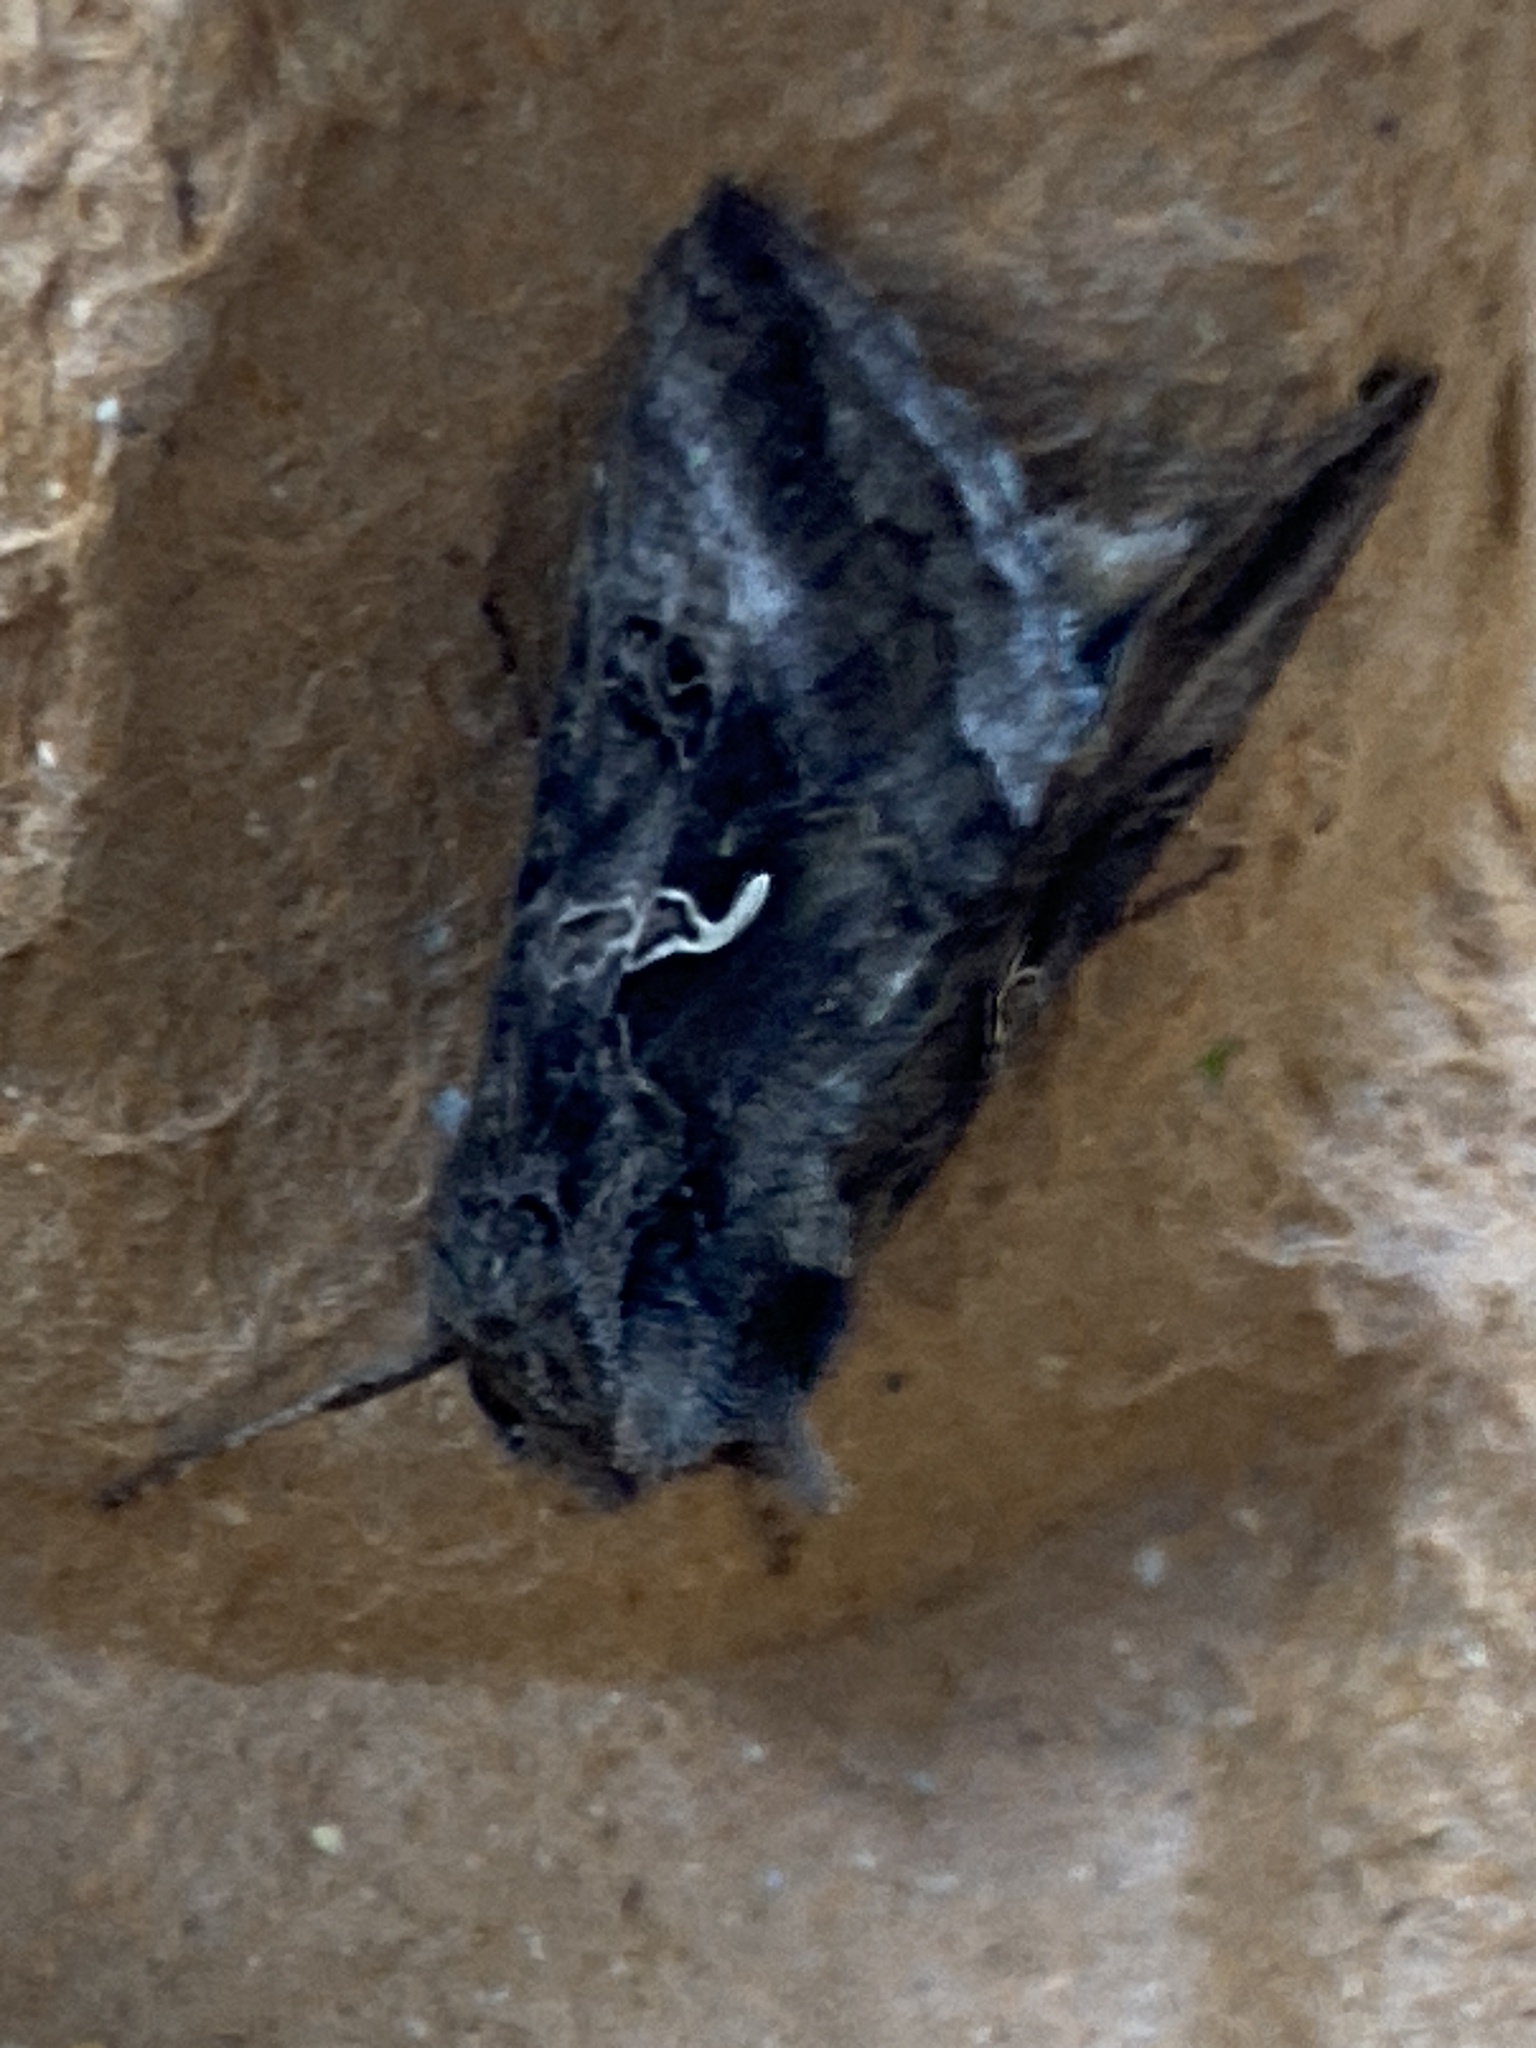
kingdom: Animalia
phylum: Arthropoda
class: Insecta
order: Lepidoptera
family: Noctuidae
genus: Autographa
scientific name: Autographa gamma
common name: Silver y
